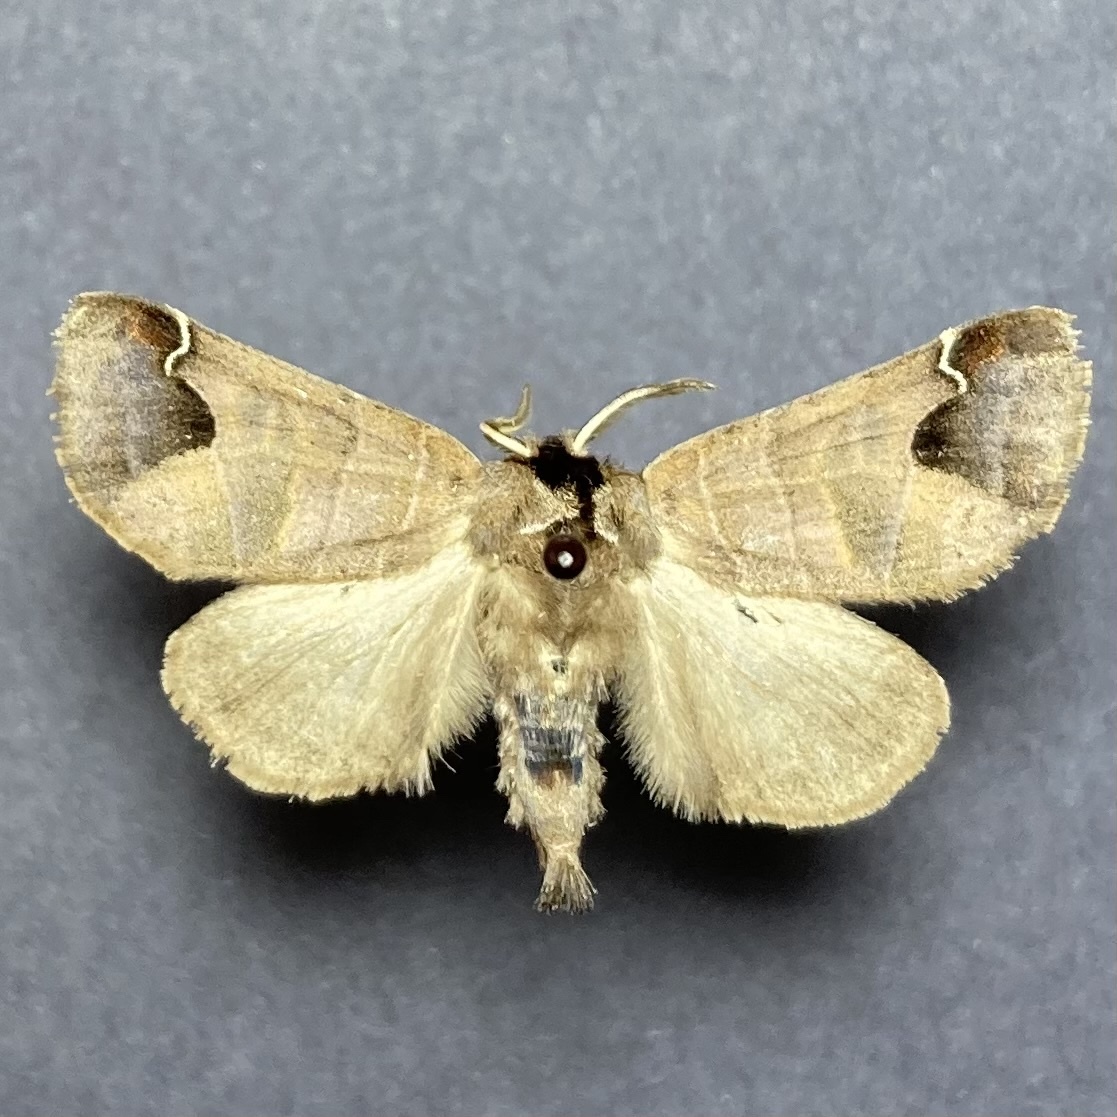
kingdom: Animalia
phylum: Arthropoda
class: Insecta
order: Lepidoptera
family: Notodontidae
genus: Clostera
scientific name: Clostera albosigma
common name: Sigmoid prominent
